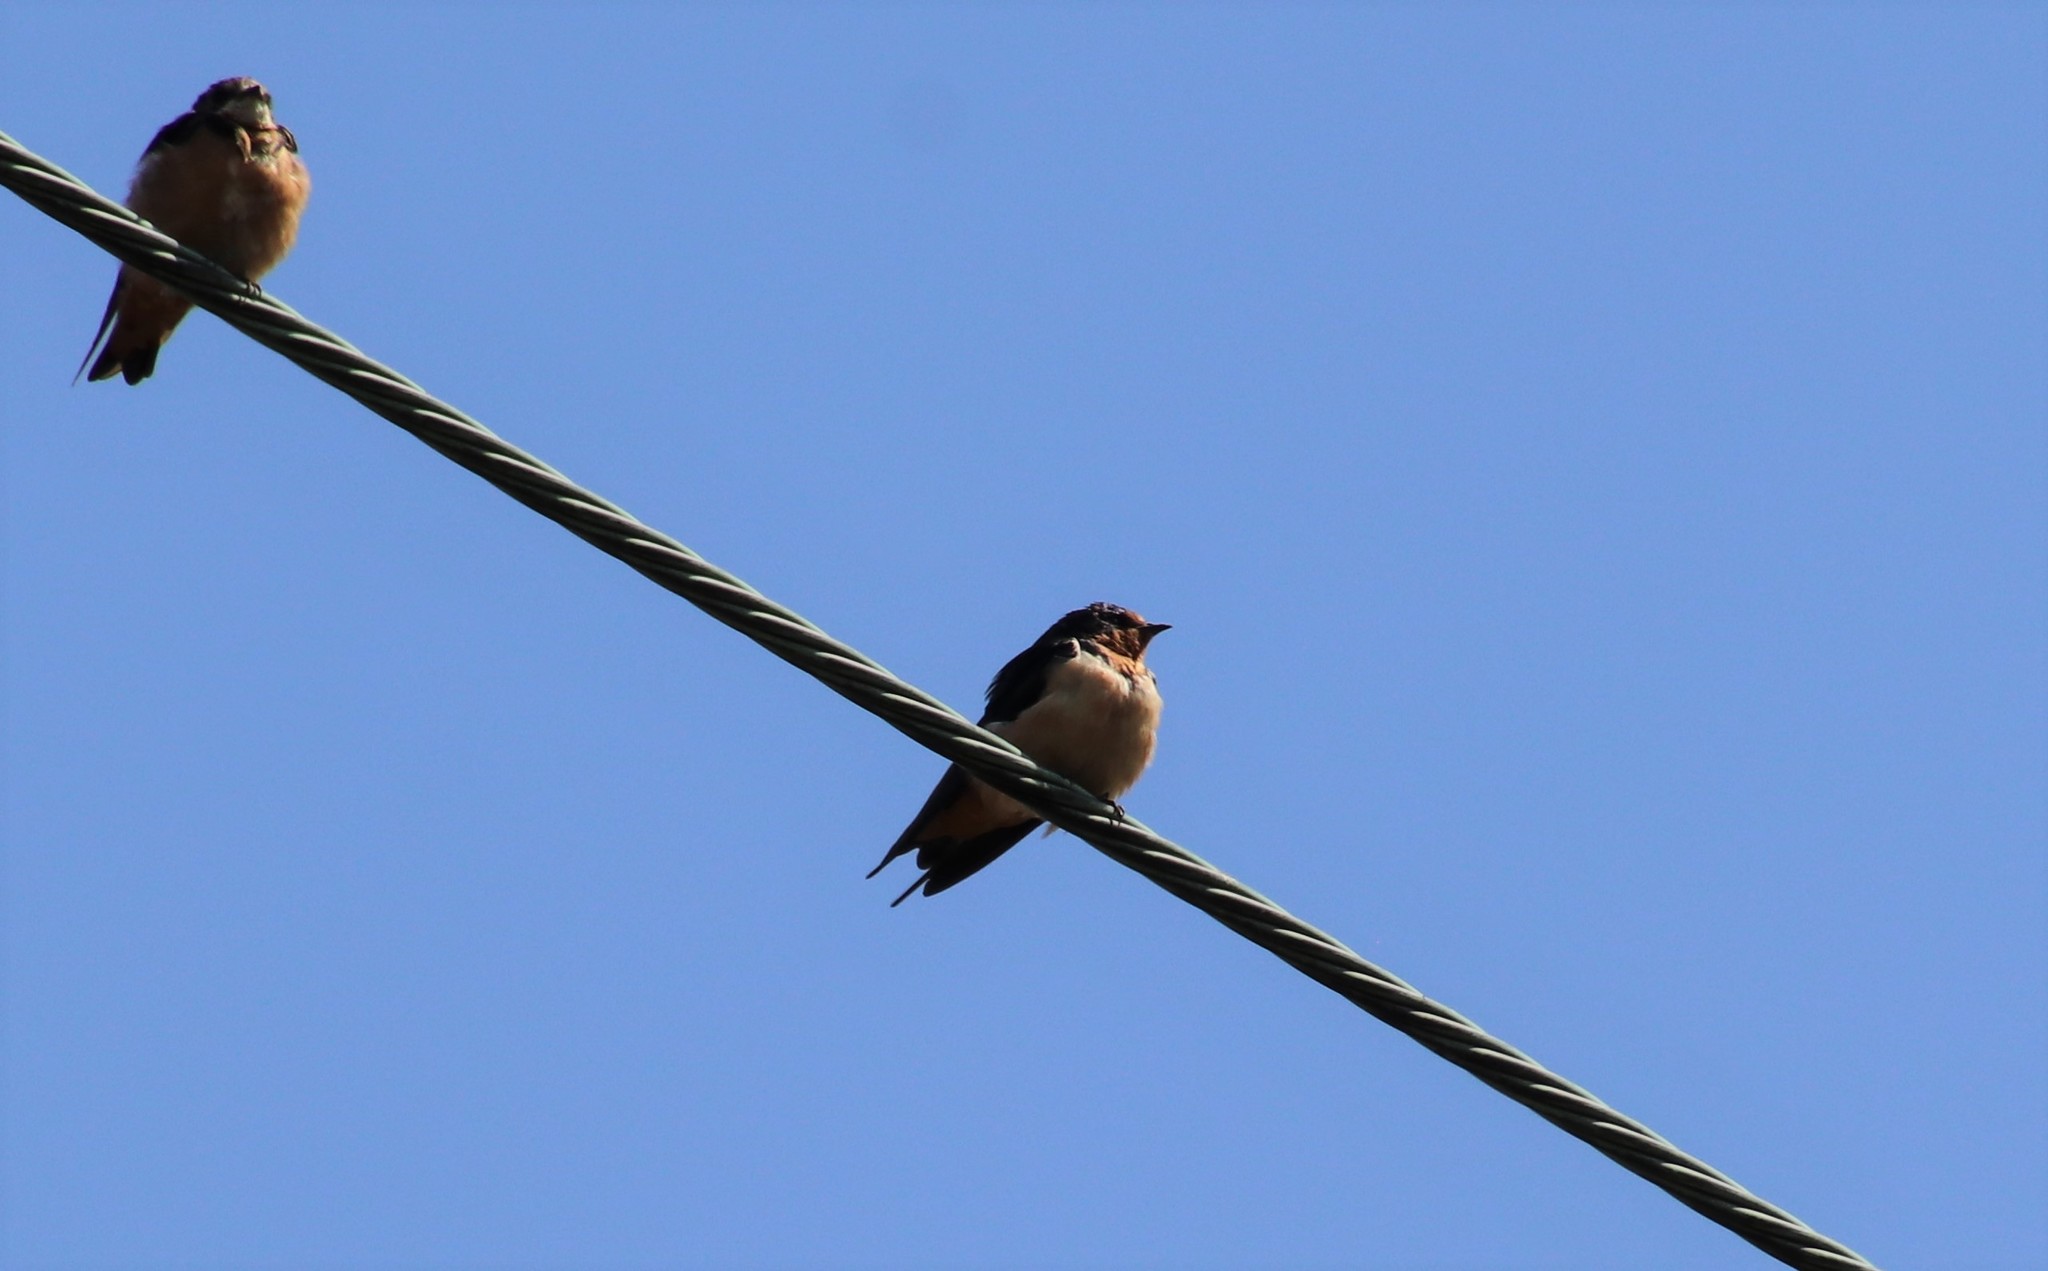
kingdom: Animalia
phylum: Chordata
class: Aves
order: Passeriformes
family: Hirundinidae
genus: Hirundo
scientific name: Hirundo rustica
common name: Barn swallow
